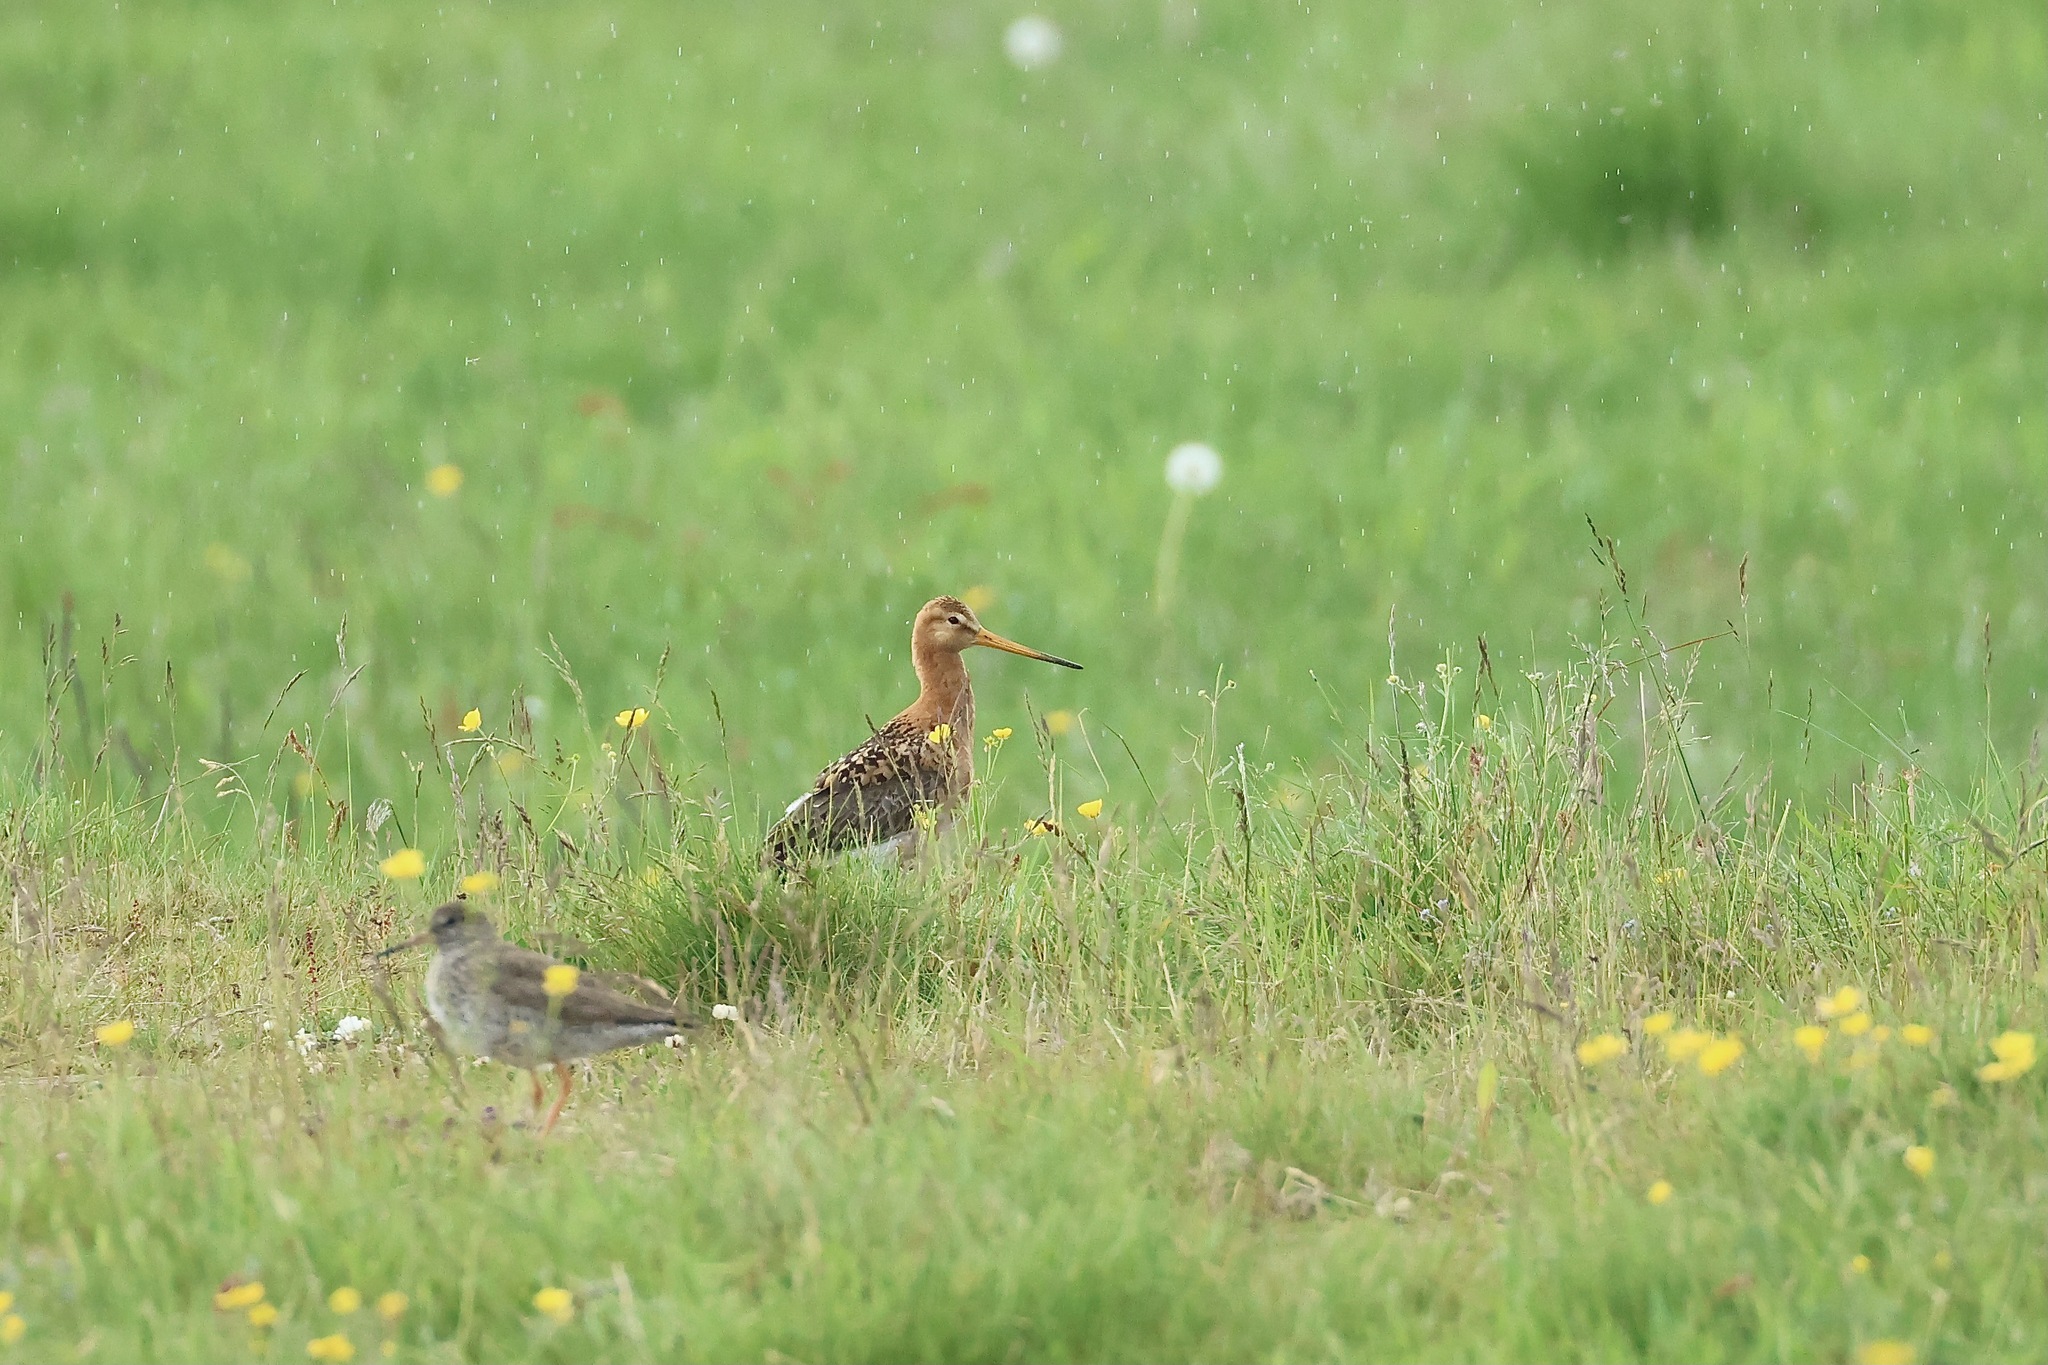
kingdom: Animalia
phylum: Chordata
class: Aves
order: Charadriiformes
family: Scolopacidae
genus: Limosa
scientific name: Limosa limosa
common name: Black-tailed godwit
